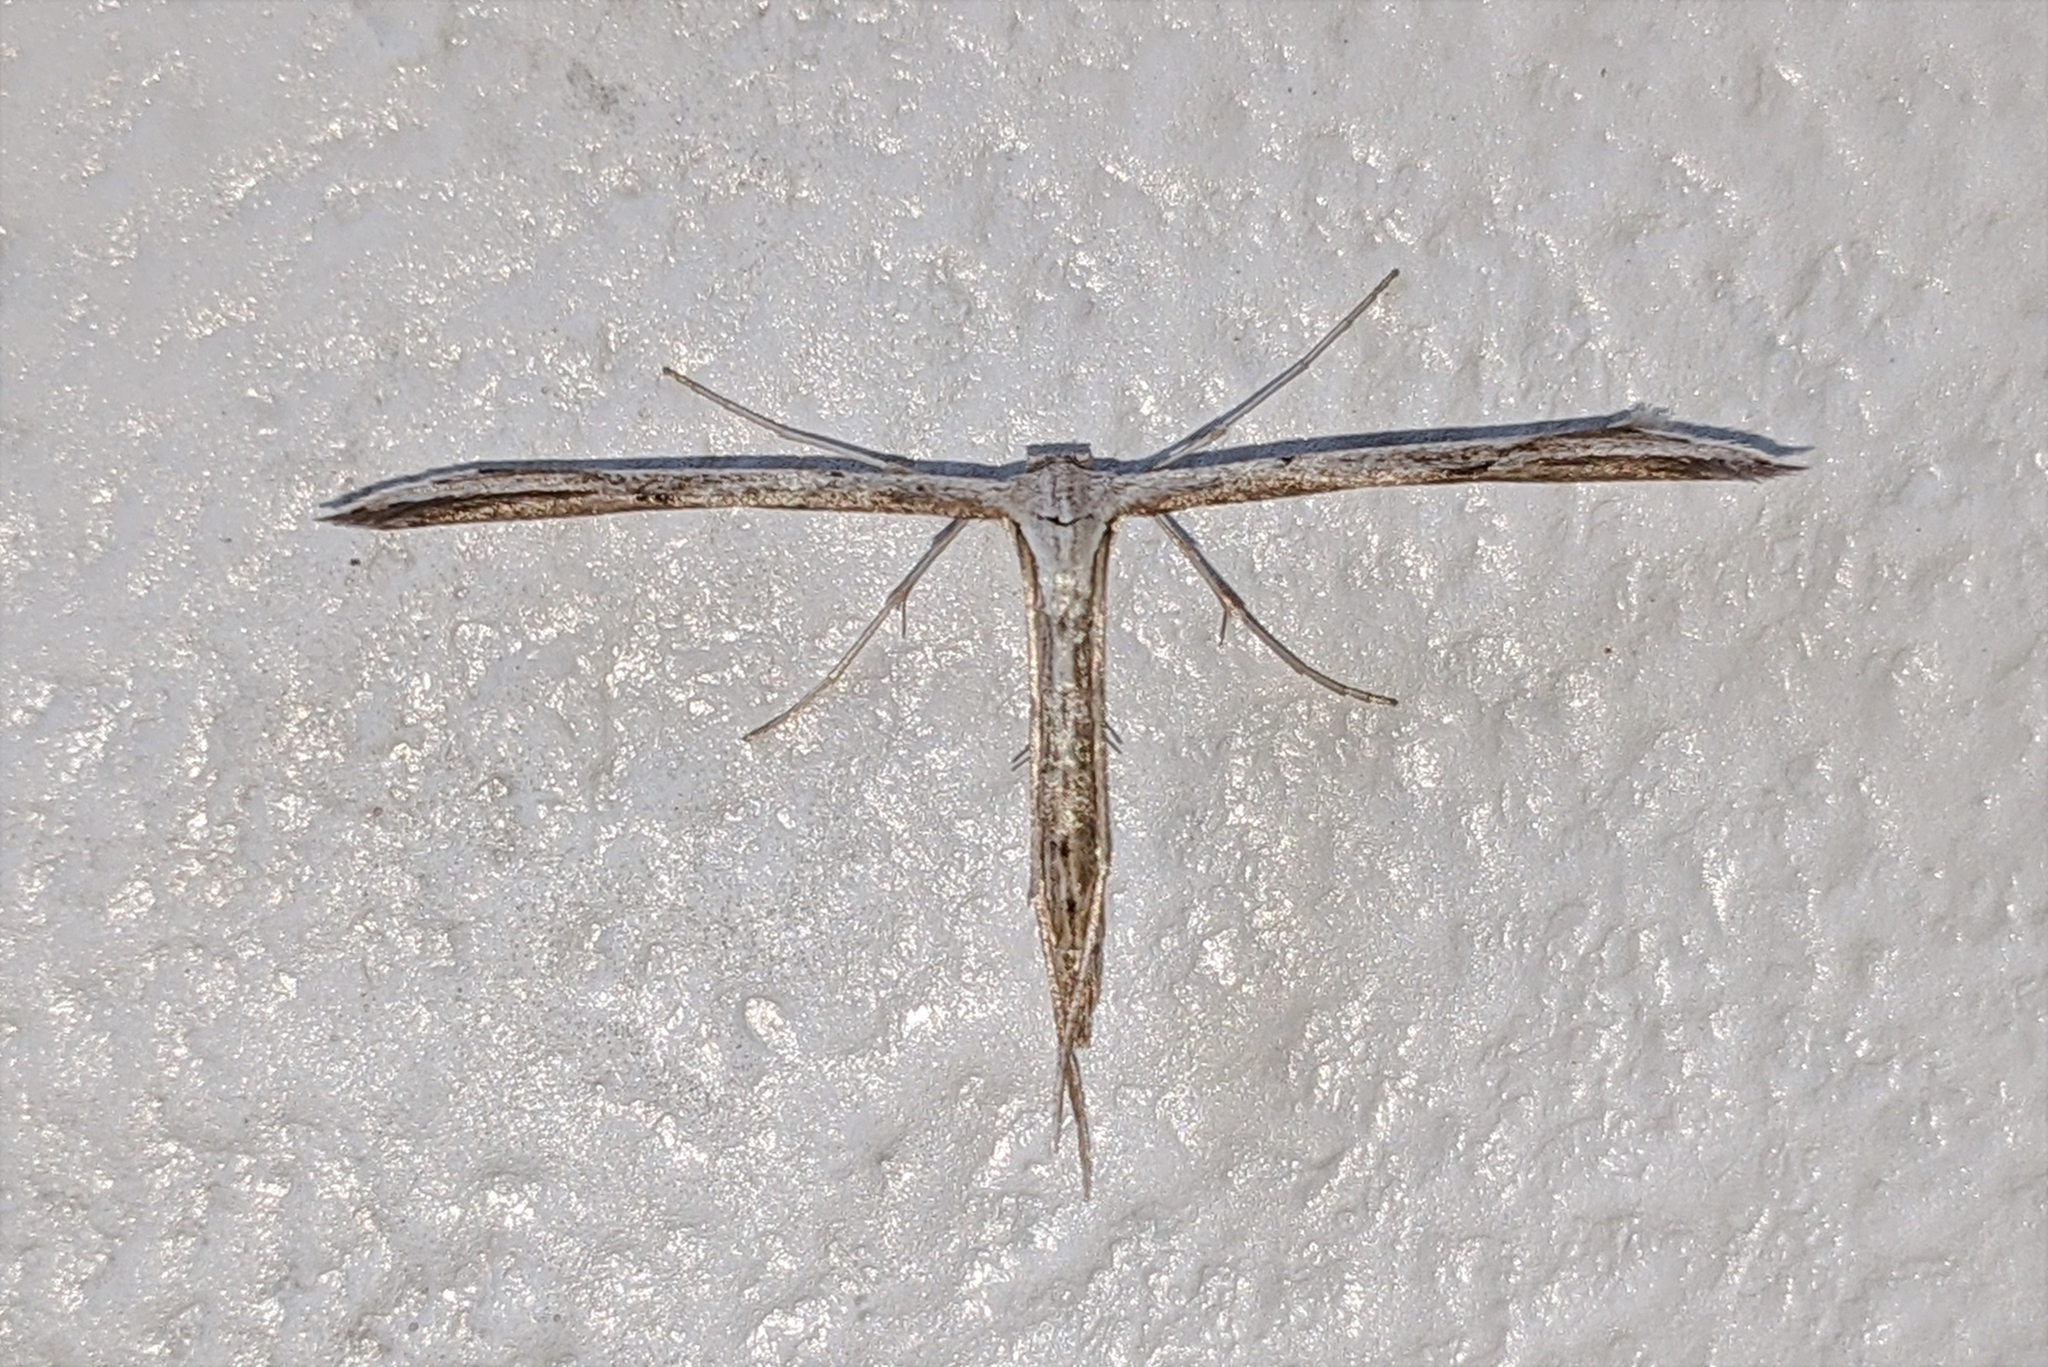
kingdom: Animalia
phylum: Arthropoda
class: Insecta
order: Lepidoptera
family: Pterophoridae
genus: Emmelina
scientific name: Emmelina monodactyla
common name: Common plume
